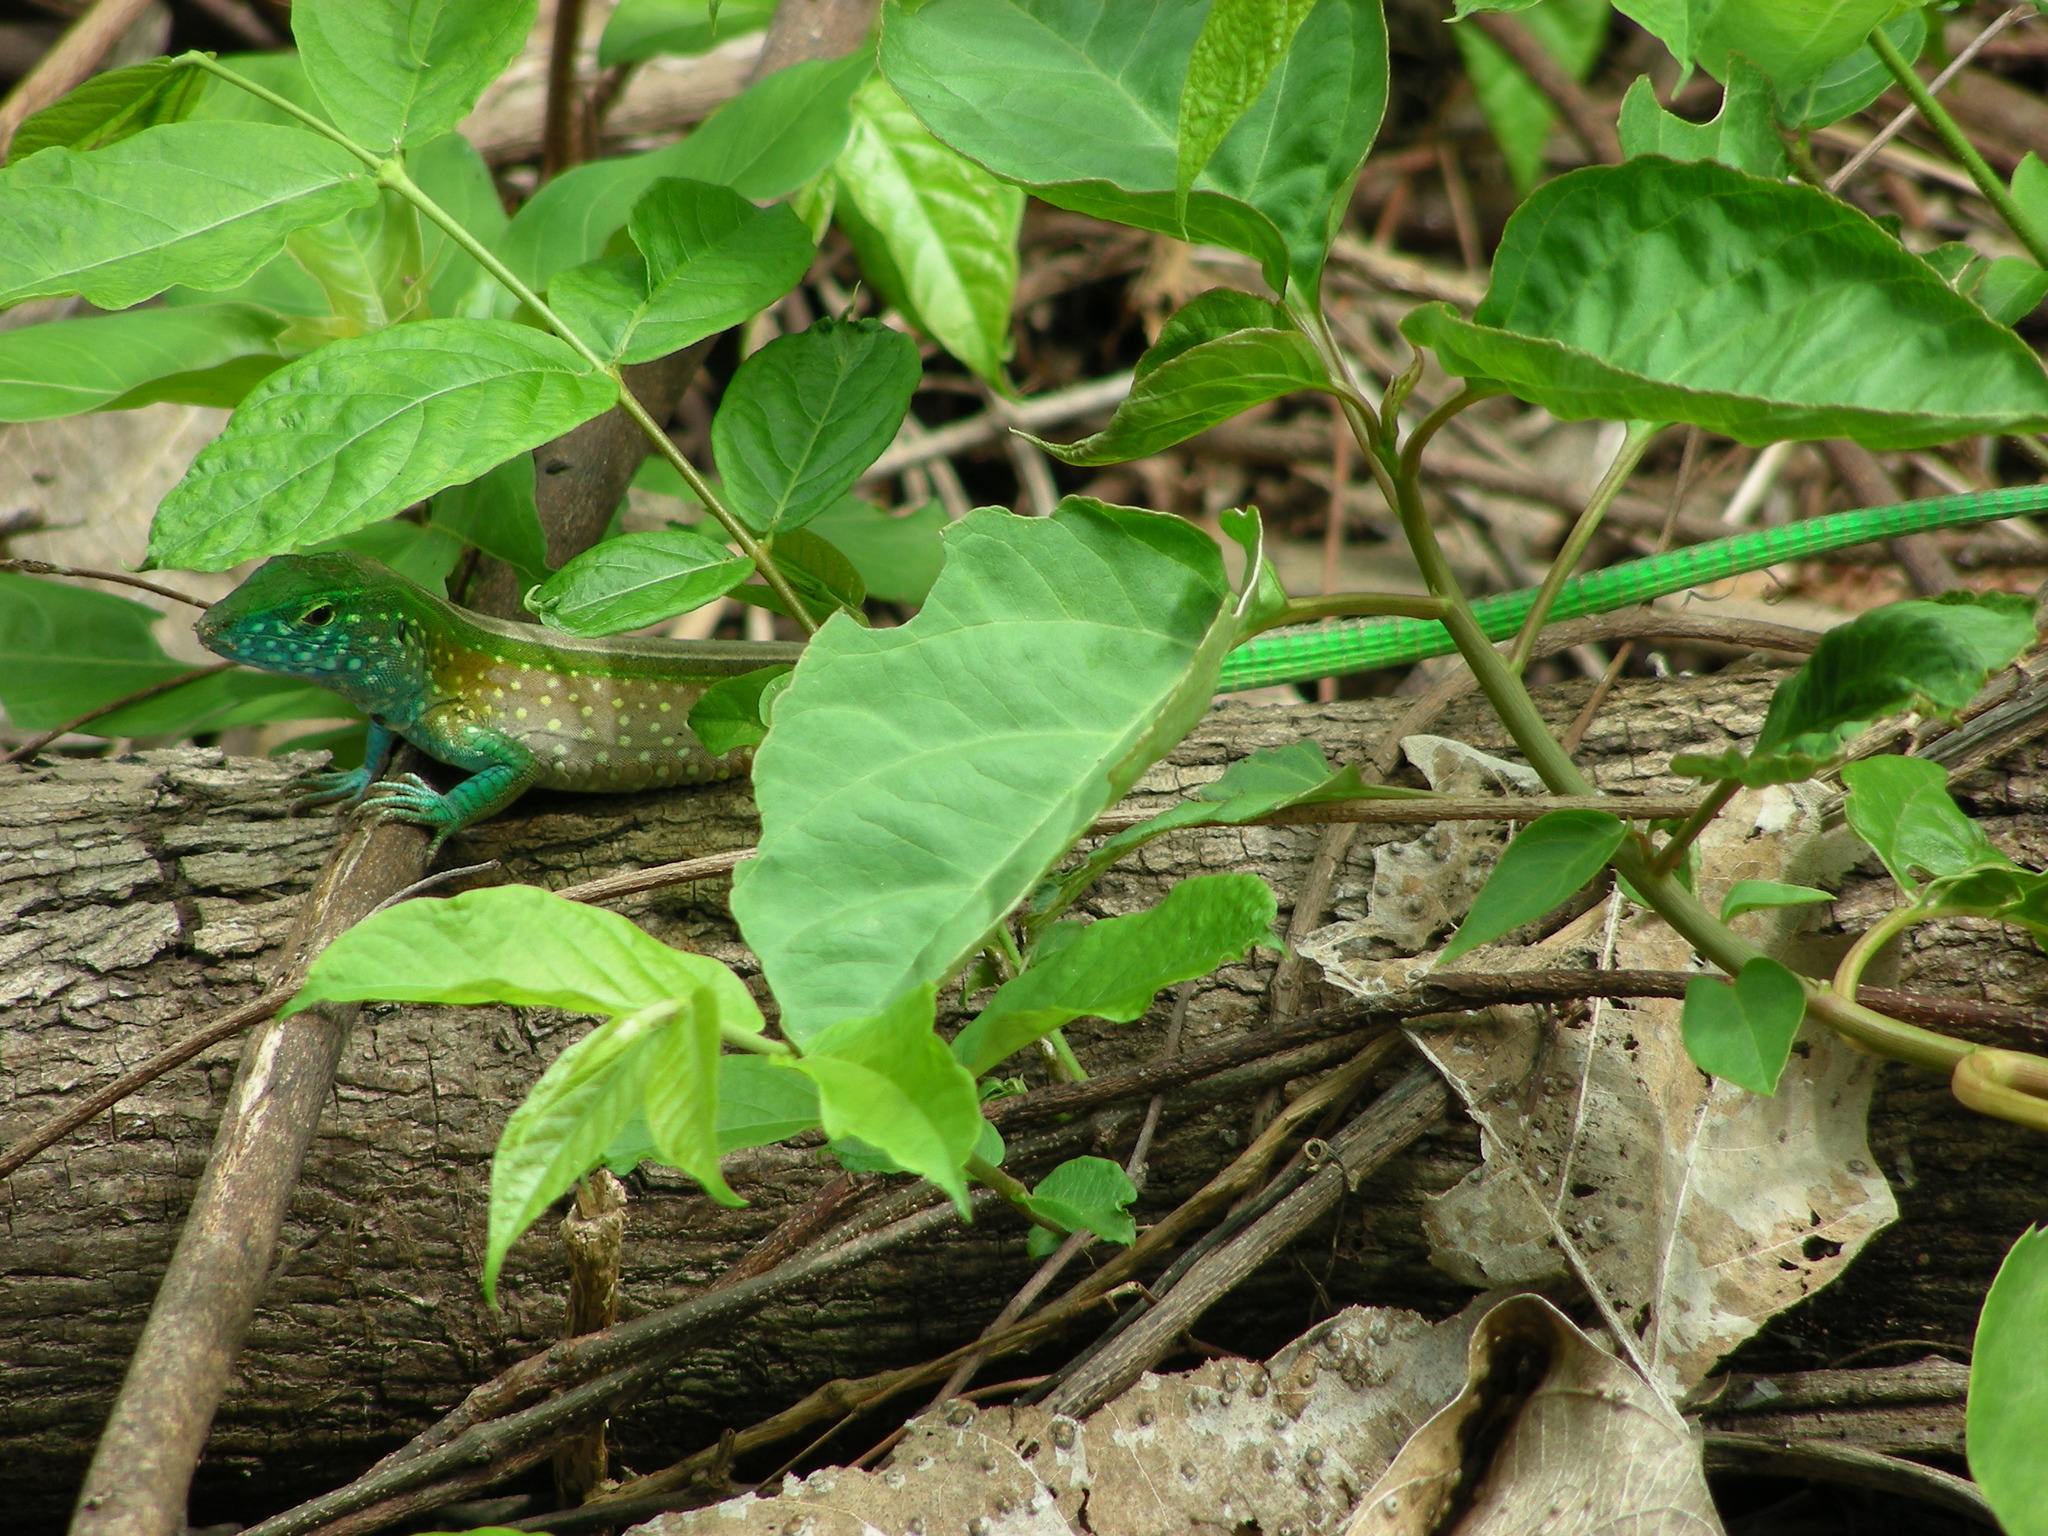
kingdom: Animalia
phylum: Chordata
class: Squamata
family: Teiidae
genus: Cnemidophorus
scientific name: Cnemidophorus gaigei
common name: Gaige’s rainbow lizard
